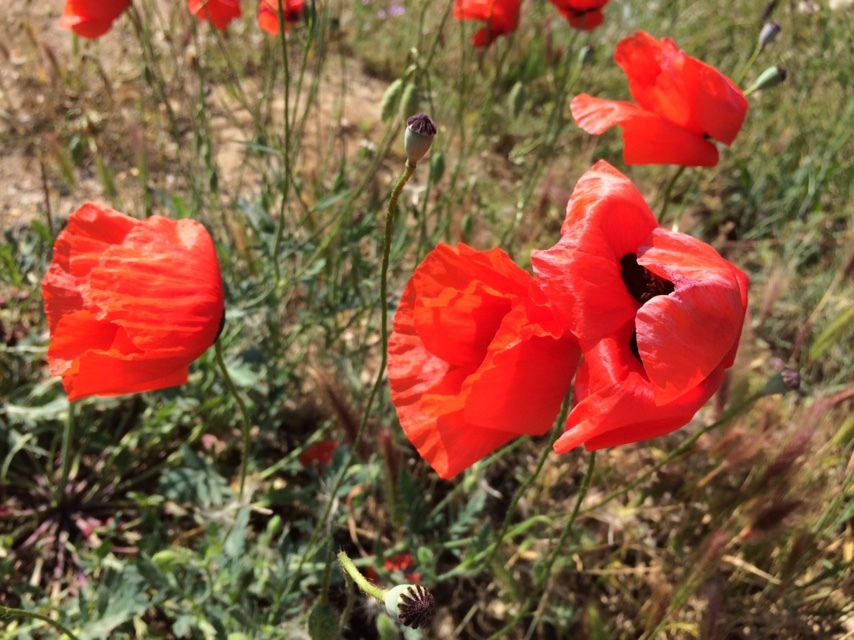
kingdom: Plantae
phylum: Tracheophyta
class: Magnoliopsida
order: Ranunculales
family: Papaveraceae
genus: Papaver
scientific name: Papaver rhoeas
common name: Corn poppy
